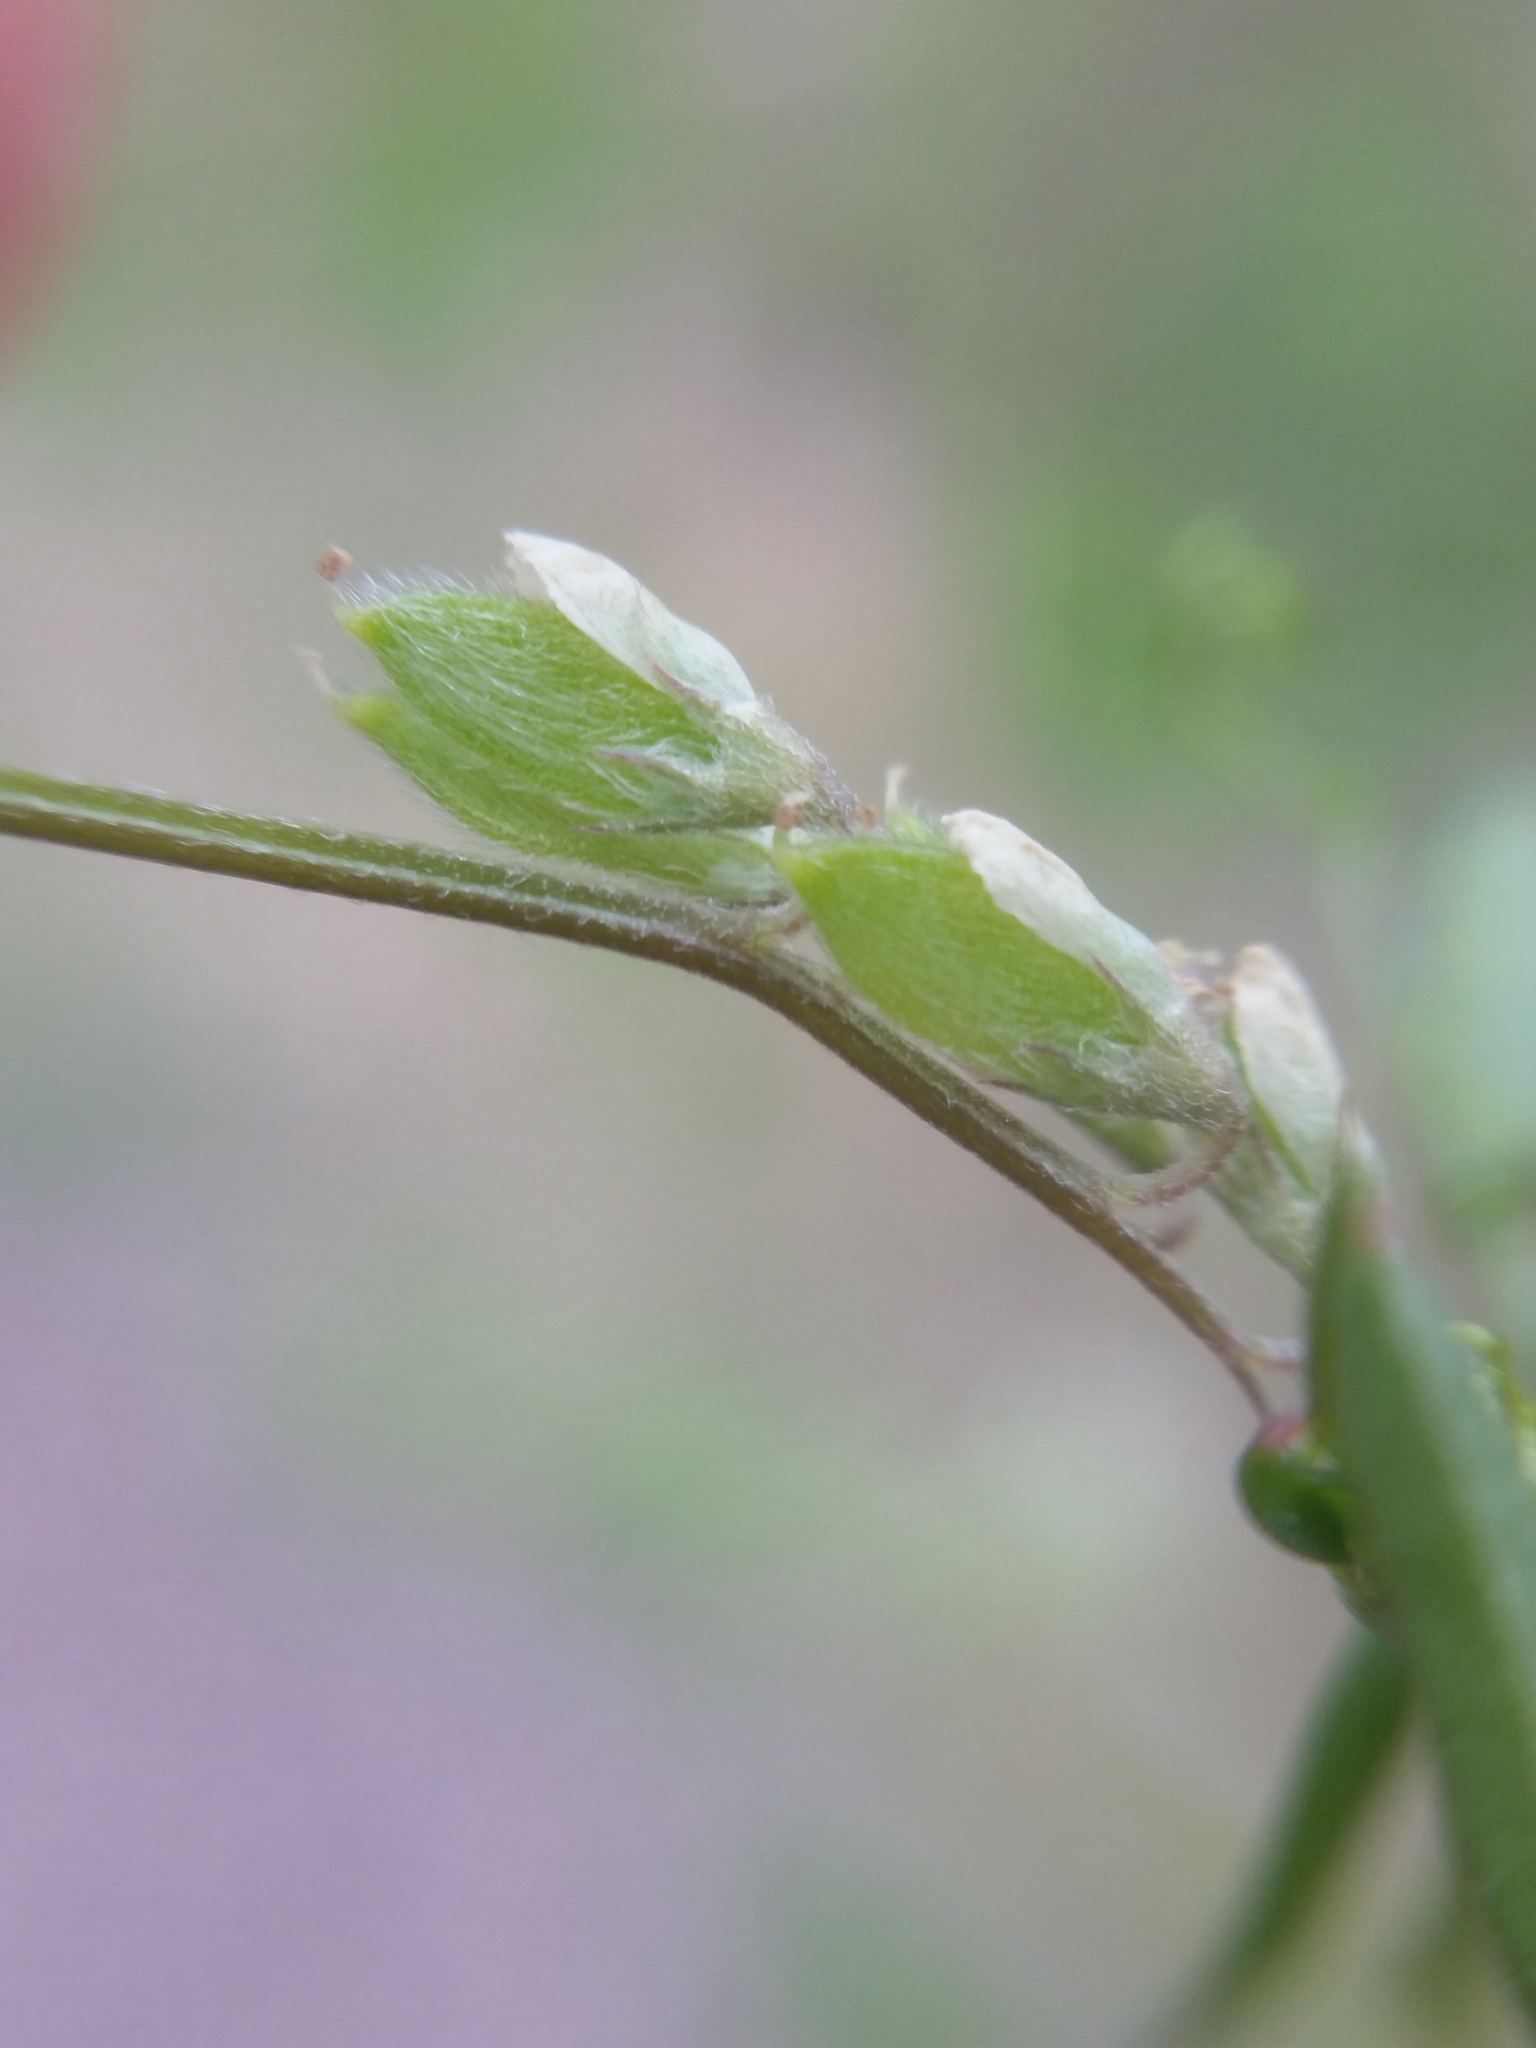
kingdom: Plantae
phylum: Tracheophyta
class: Magnoliopsida
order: Fabales
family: Fabaceae
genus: Vicia
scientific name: Vicia hirsuta
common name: Tiny vetch
